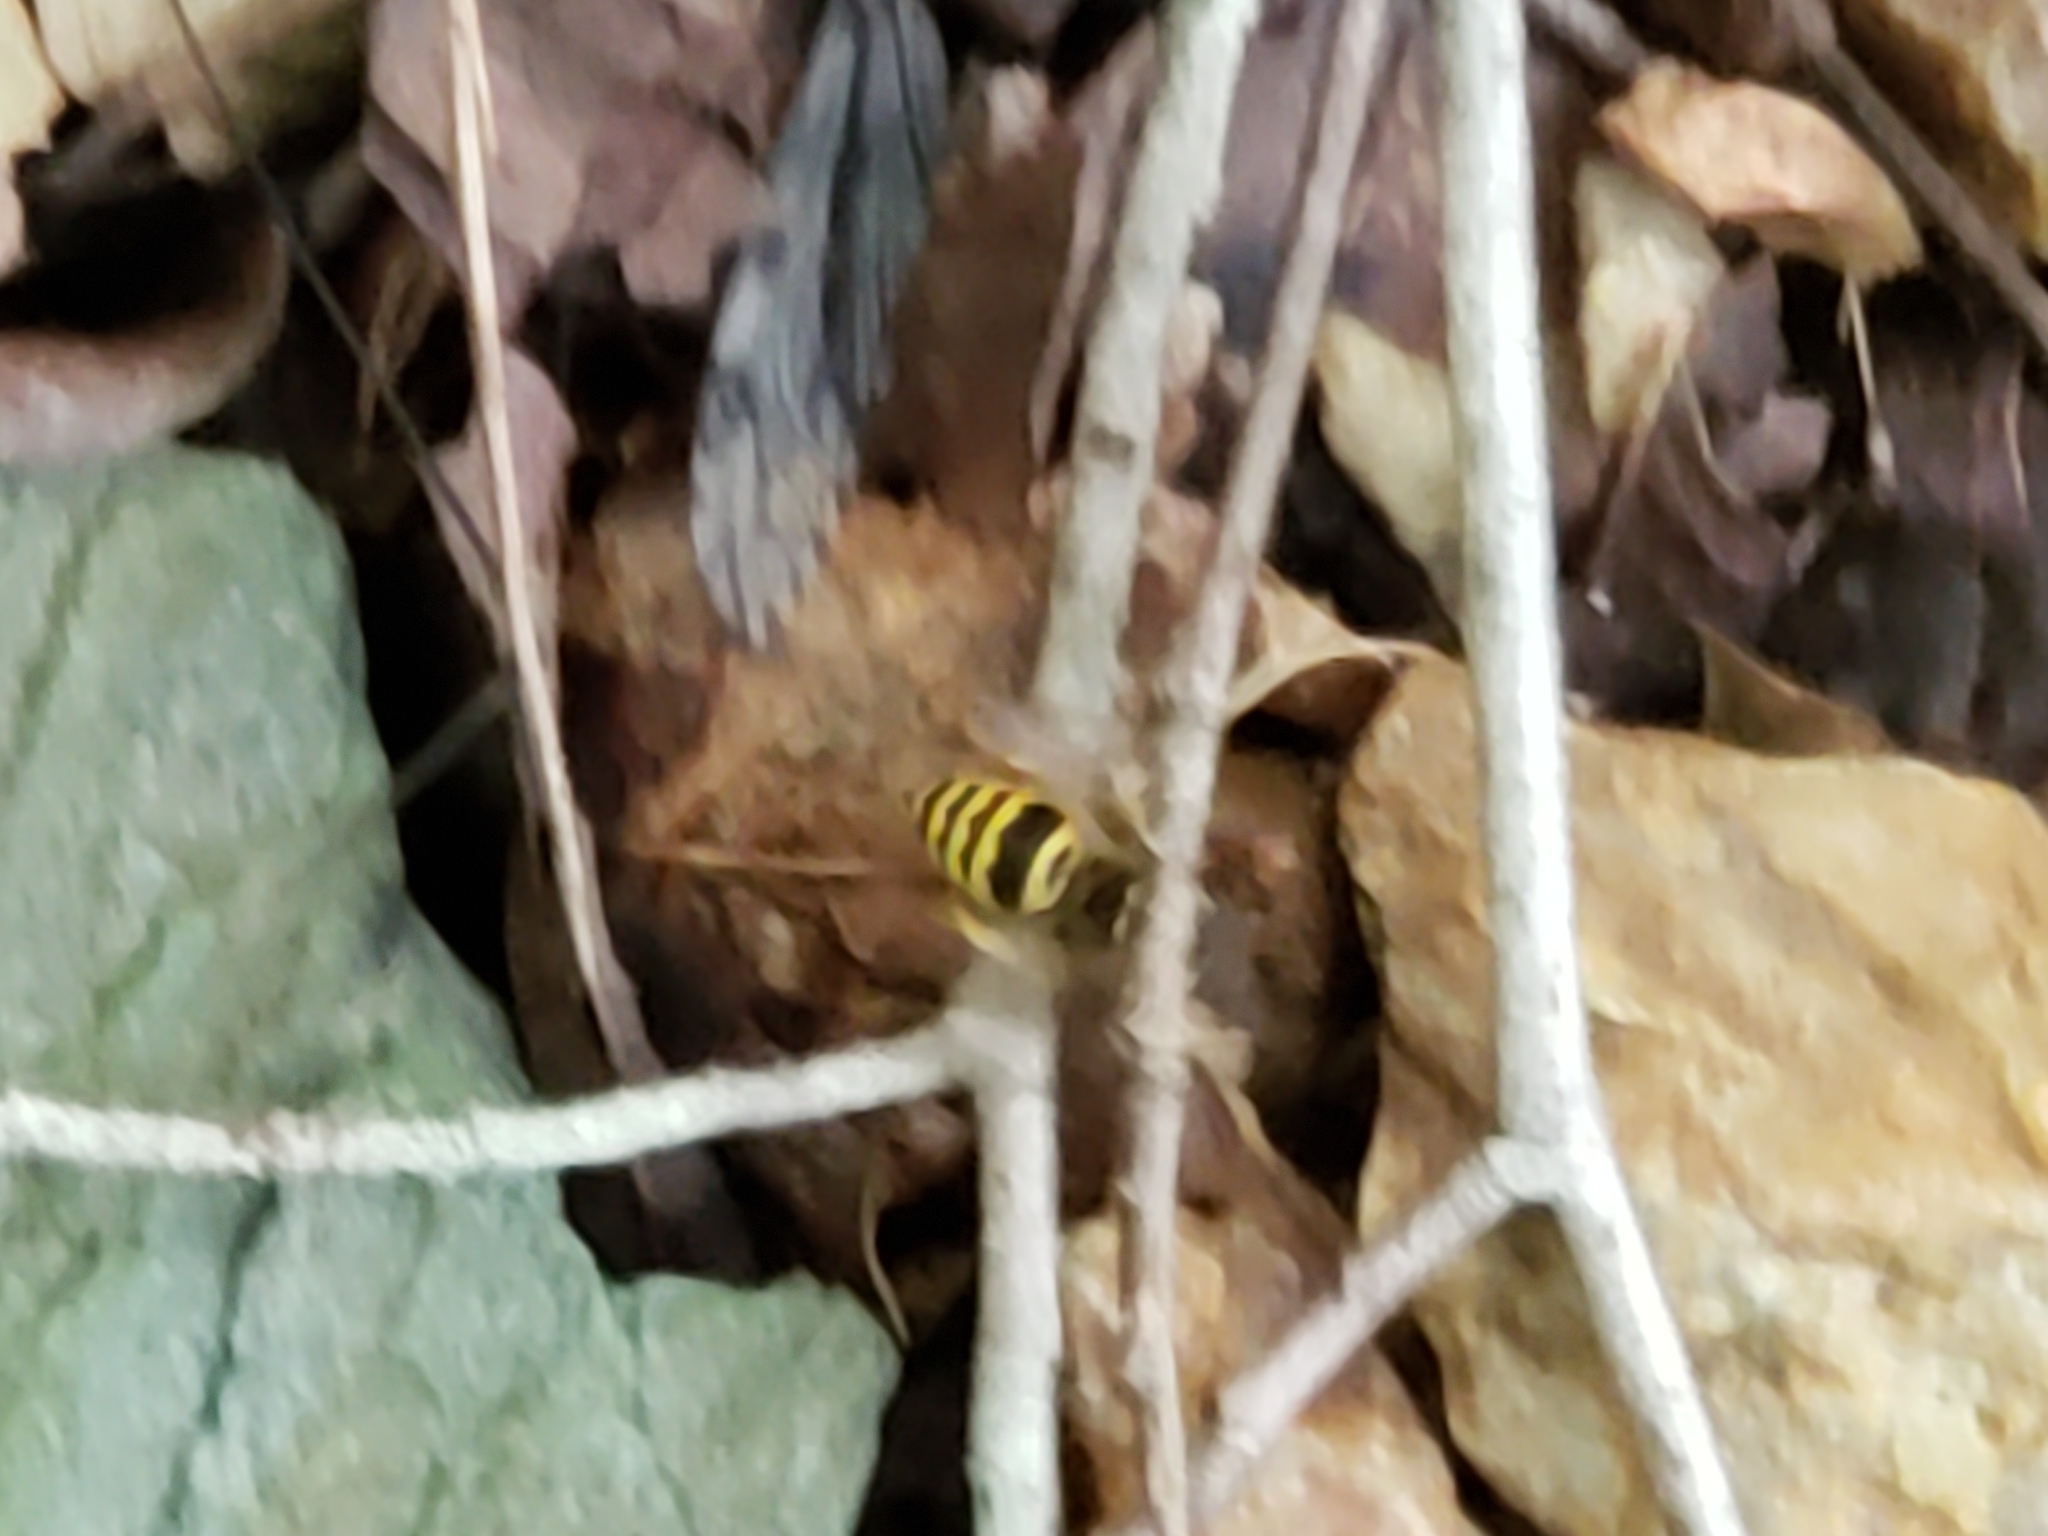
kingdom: Animalia
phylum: Arthropoda
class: Insecta
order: Hymenoptera
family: Vespidae
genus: Vespula
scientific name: Vespula maculifrons
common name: Eastern yellowjacket
